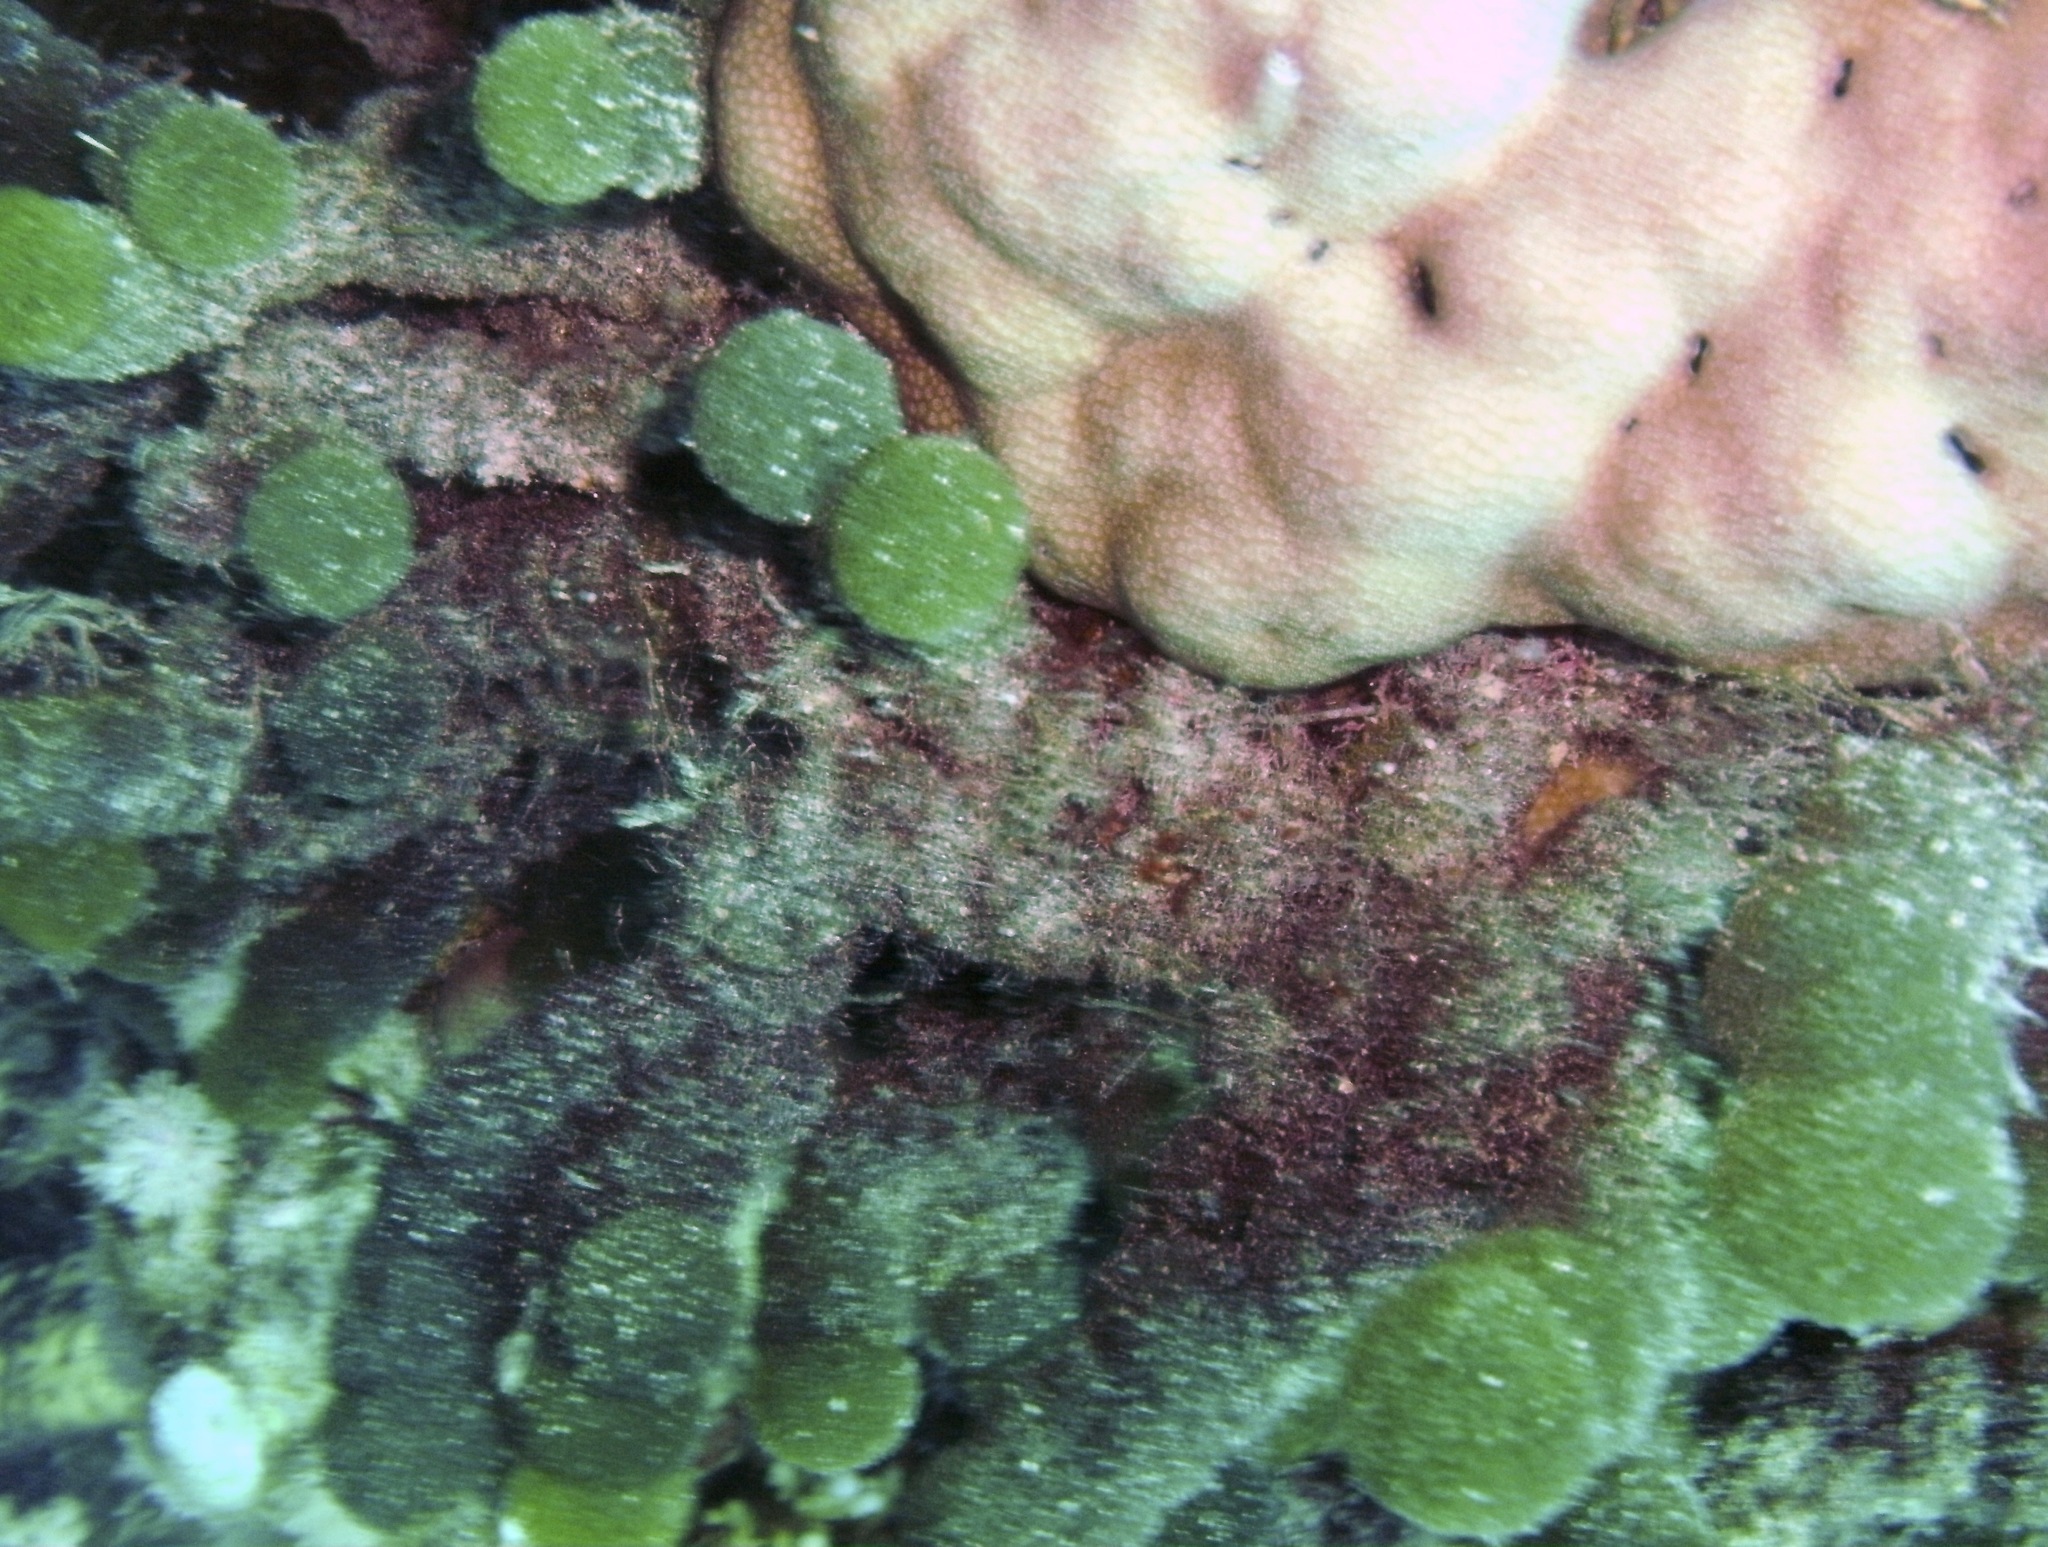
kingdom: Plantae
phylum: Chlorophyta
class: Ulvophyceae
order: Bryopsidales
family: Udoteaceae
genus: Tydemania
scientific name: Tydemania expeditionis
